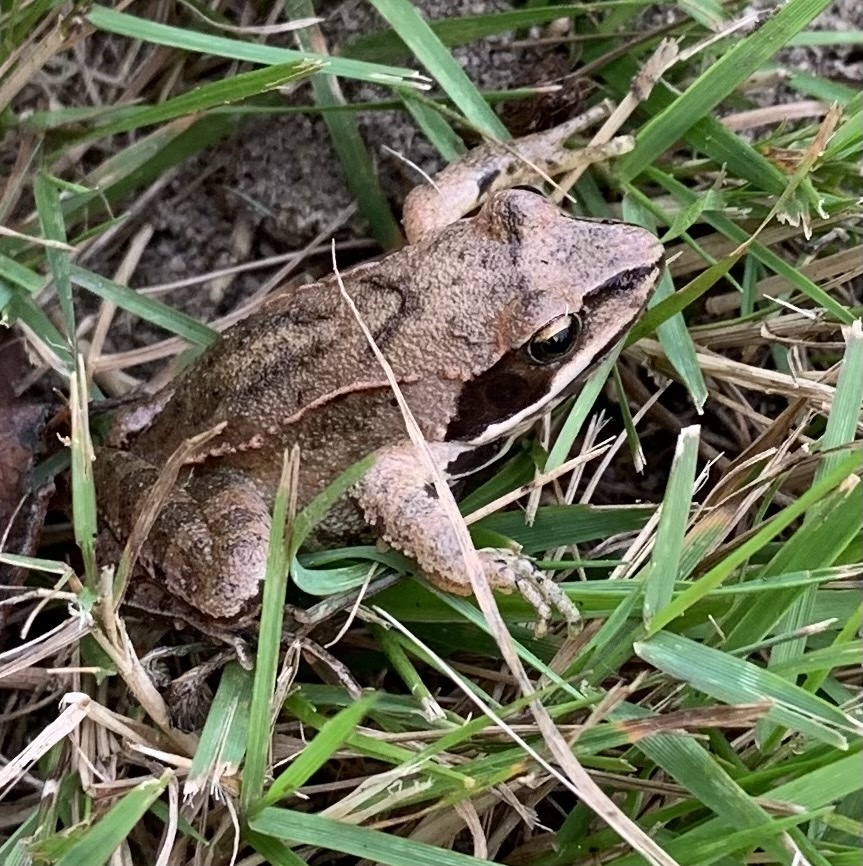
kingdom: Animalia
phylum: Chordata
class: Amphibia
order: Anura
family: Ranidae
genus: Rana
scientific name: Rana dalmatina
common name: Agile frog
